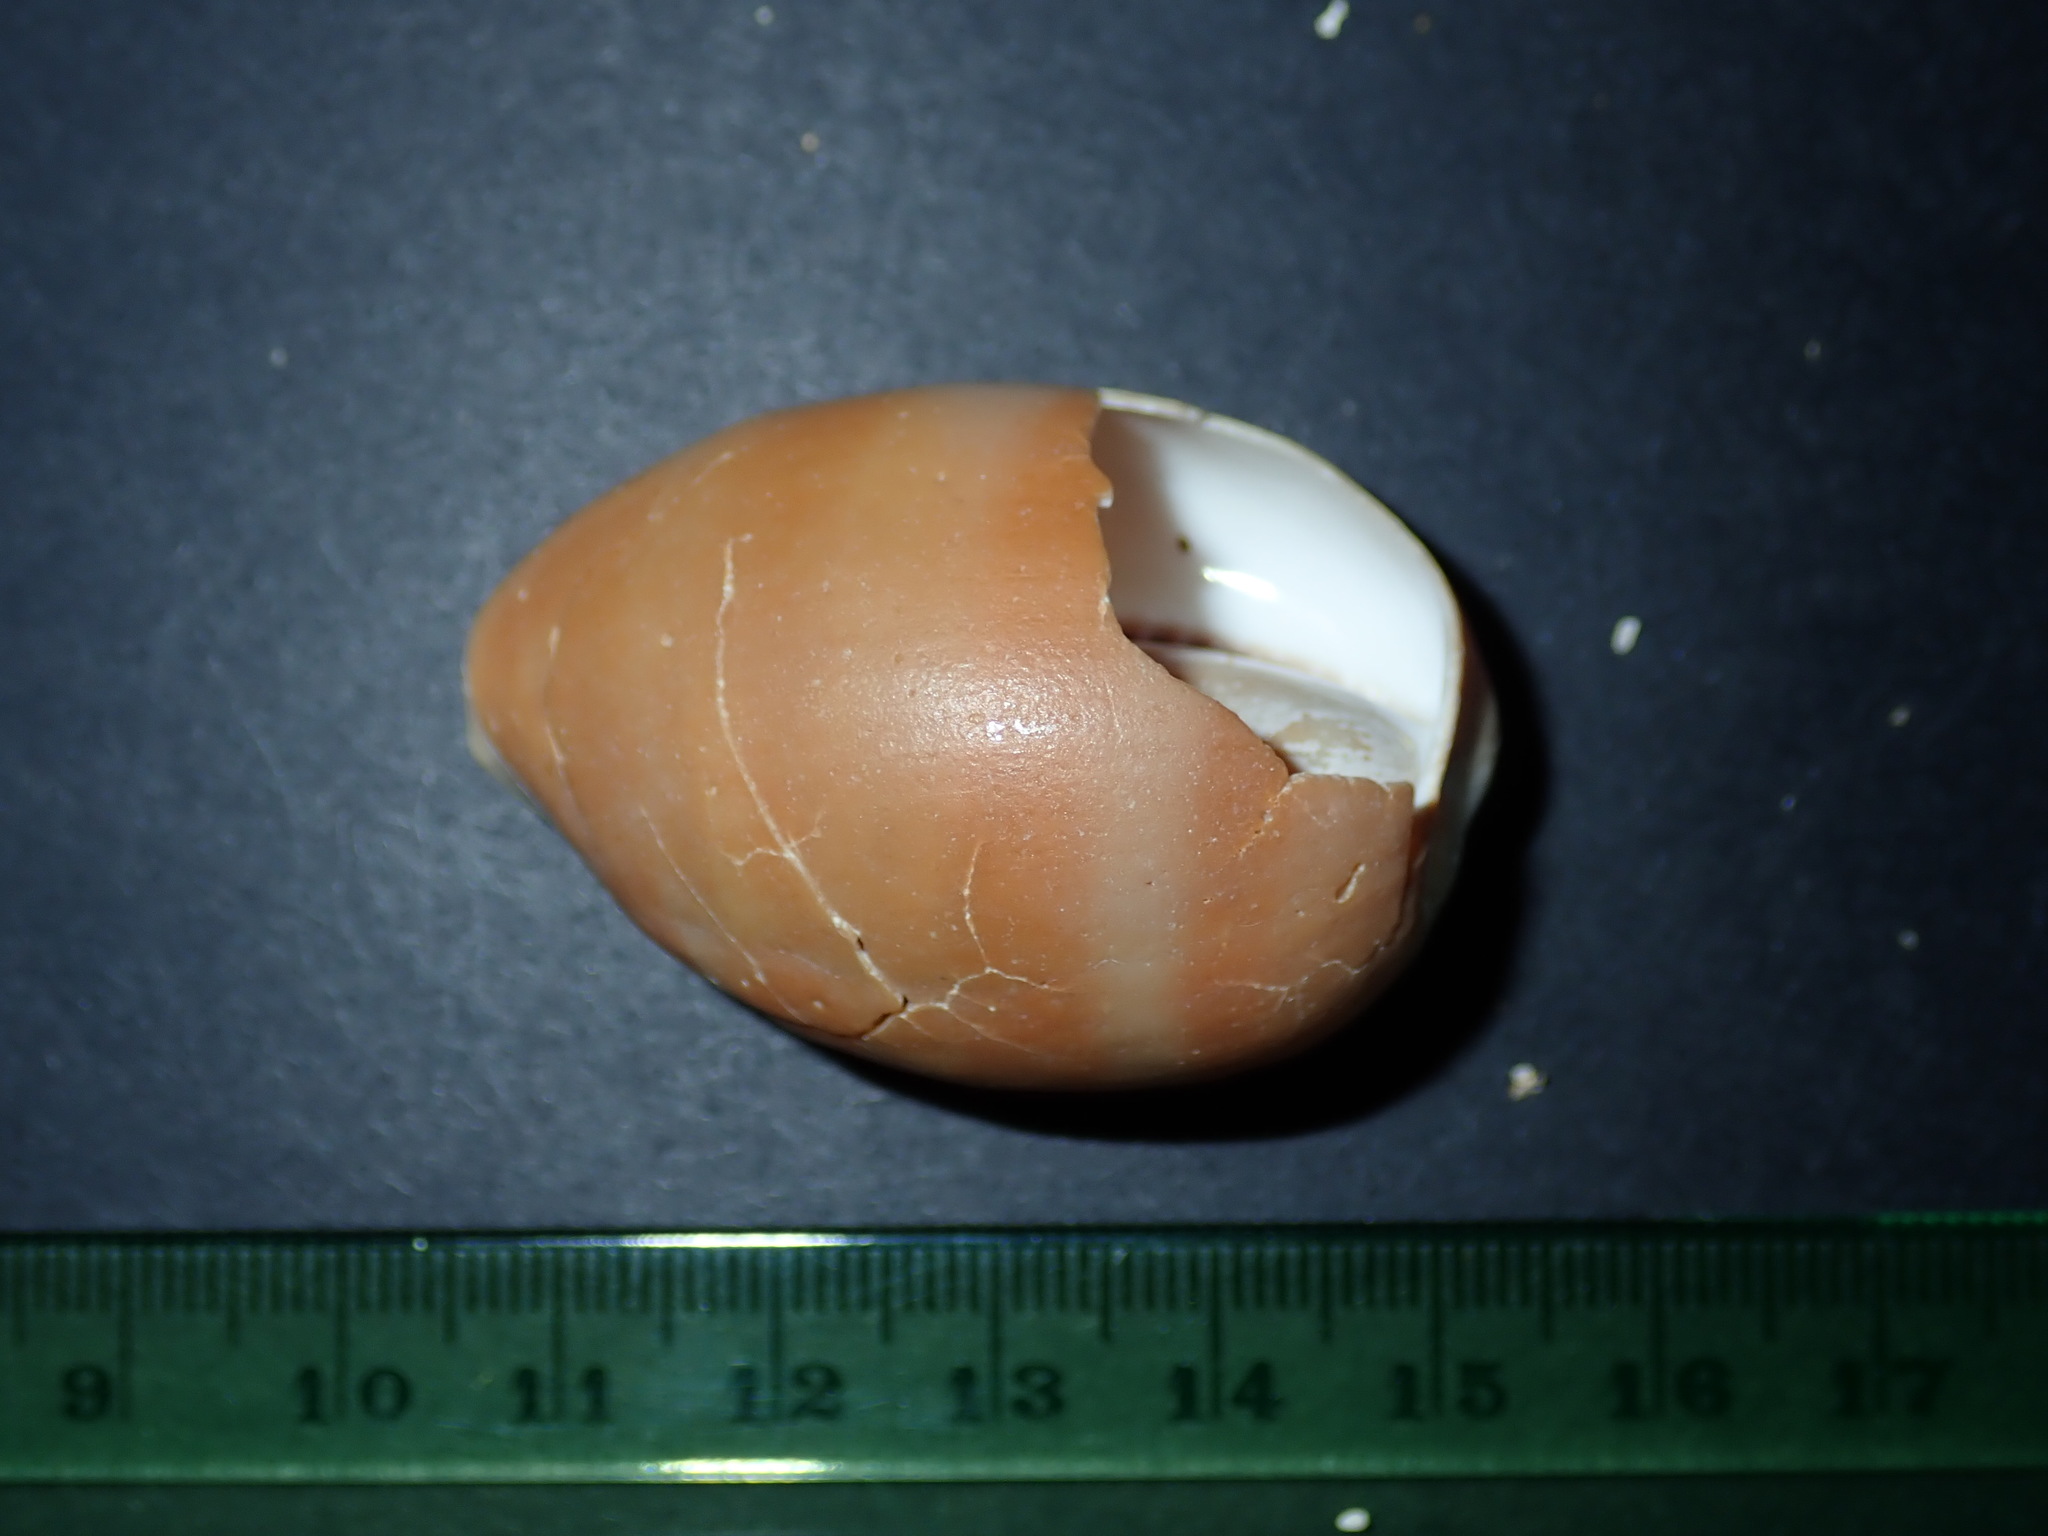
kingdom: Animalia
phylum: Mollusca
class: Gastropoda
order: Littorinimorpha
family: Cypraeidae
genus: Lyncina
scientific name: Lyncina carneola
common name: Purple-mouthed cowry
